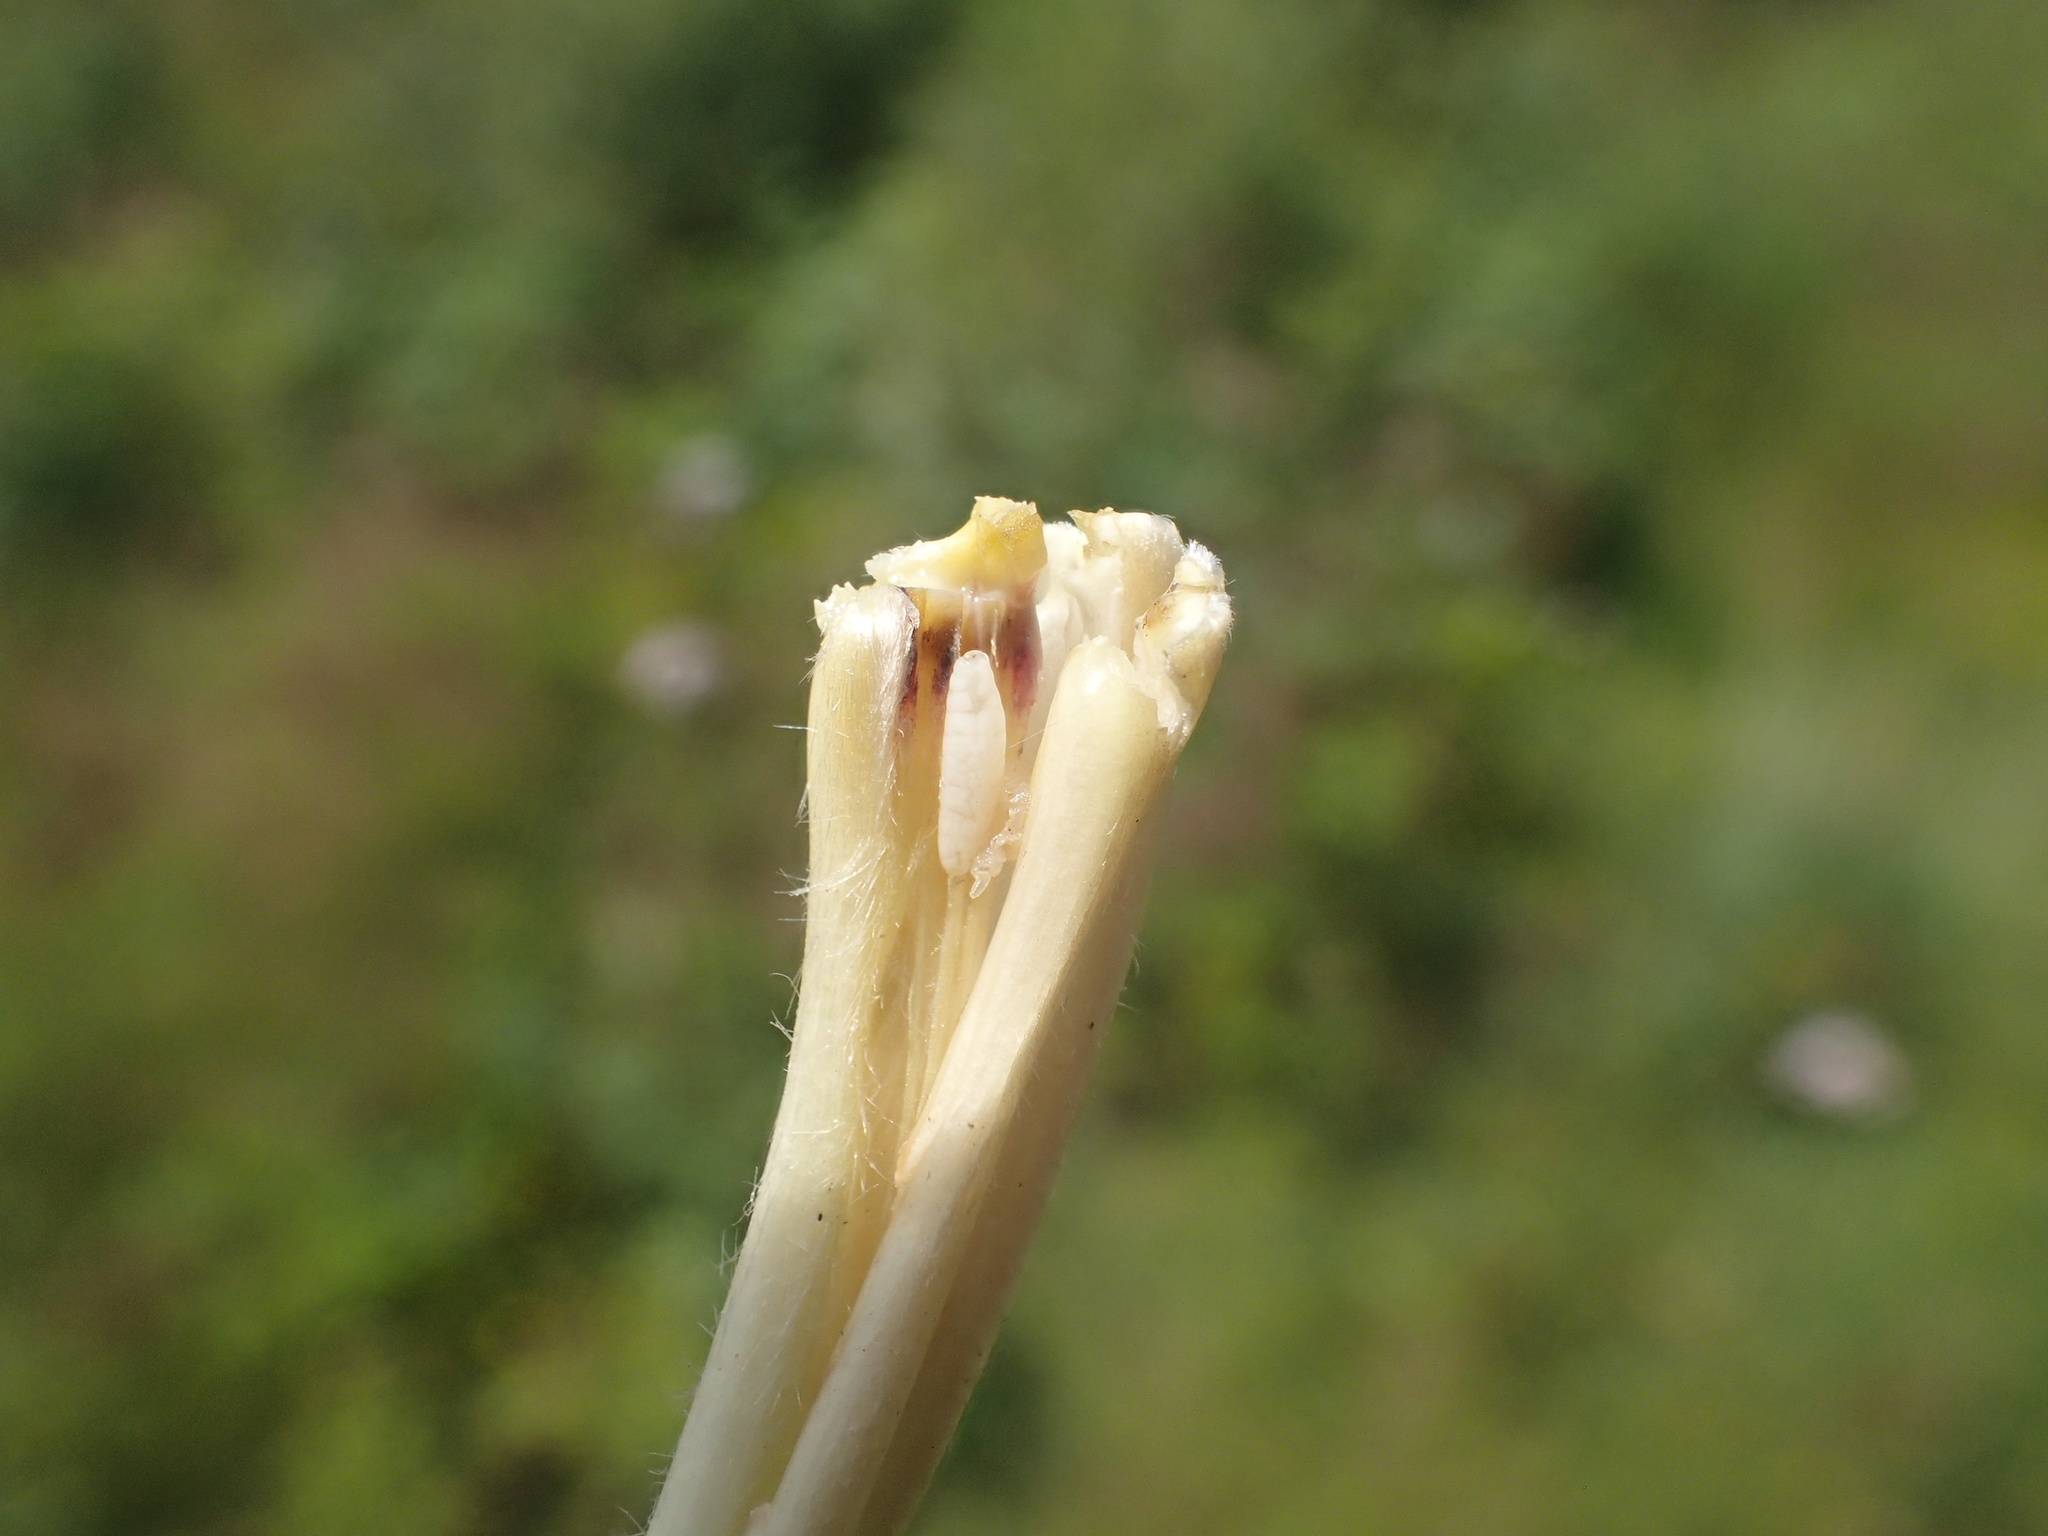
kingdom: Animalia
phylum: Arthropoda
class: Insecta
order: Diptera
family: Cecidomyiidae
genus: Mayetiola
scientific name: Mayetiola moliniae
